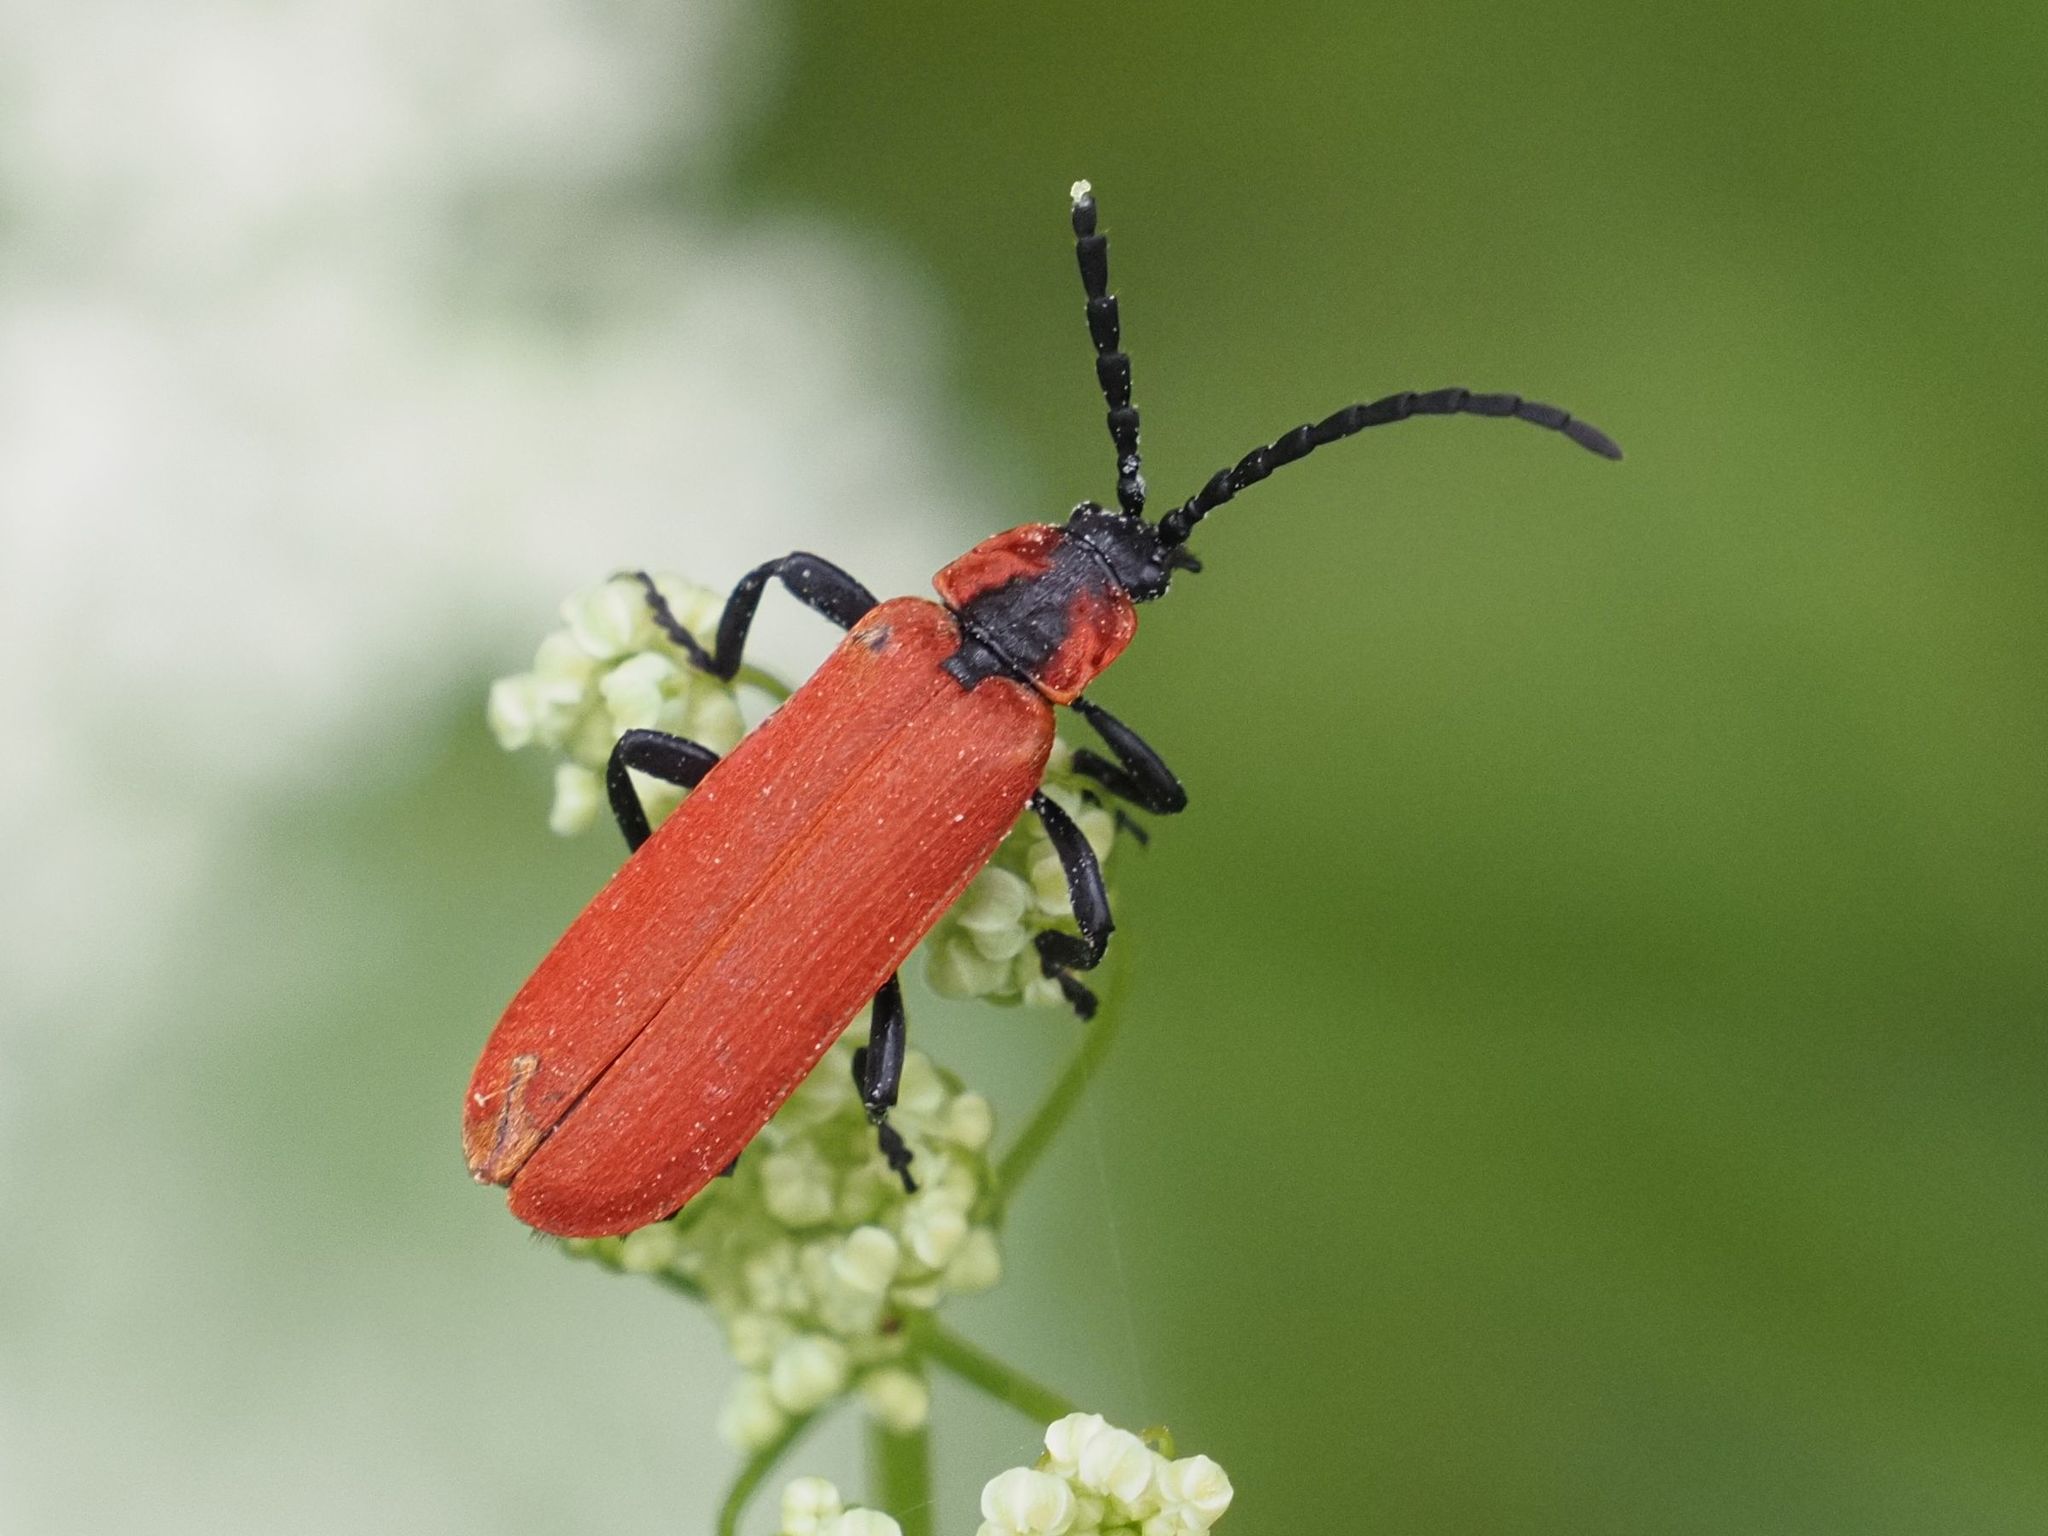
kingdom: Animalia
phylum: Arthropoda
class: Insecta
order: Coleoptera
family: Lycidae
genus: Lygistopterus
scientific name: Lygistopterus sanguineus
